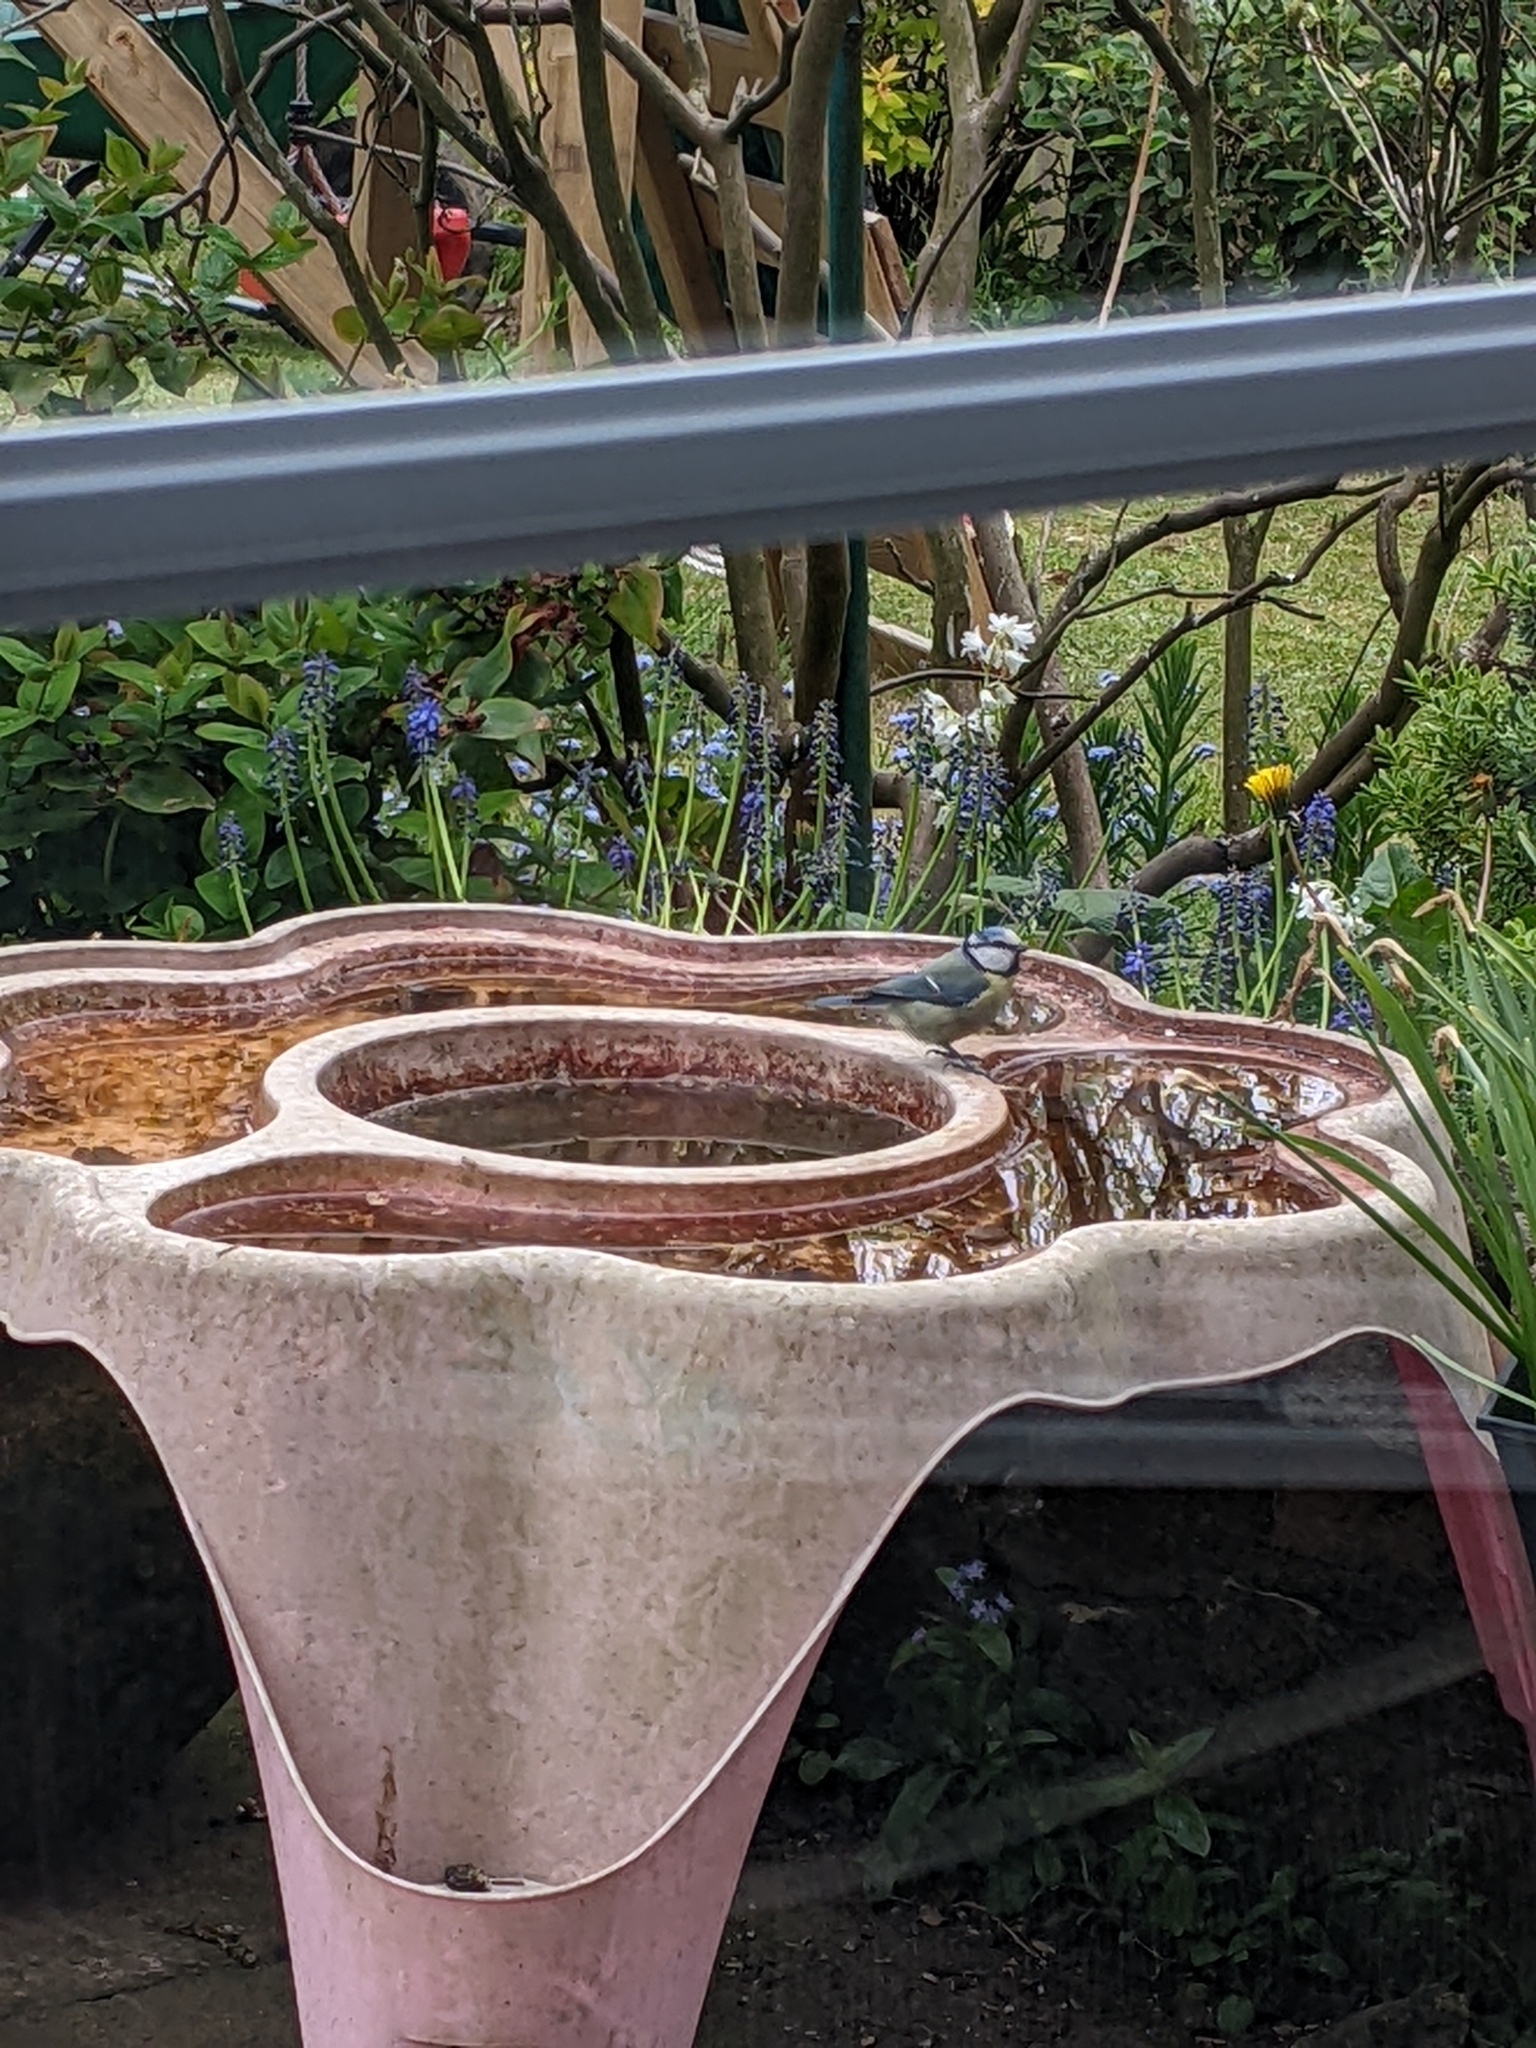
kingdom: Animalia
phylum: Chordata
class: Aves
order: Passeriformes
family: Paridae
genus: Cyanistes
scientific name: Cyanistes caeruleus
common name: Eurasian blue tit
